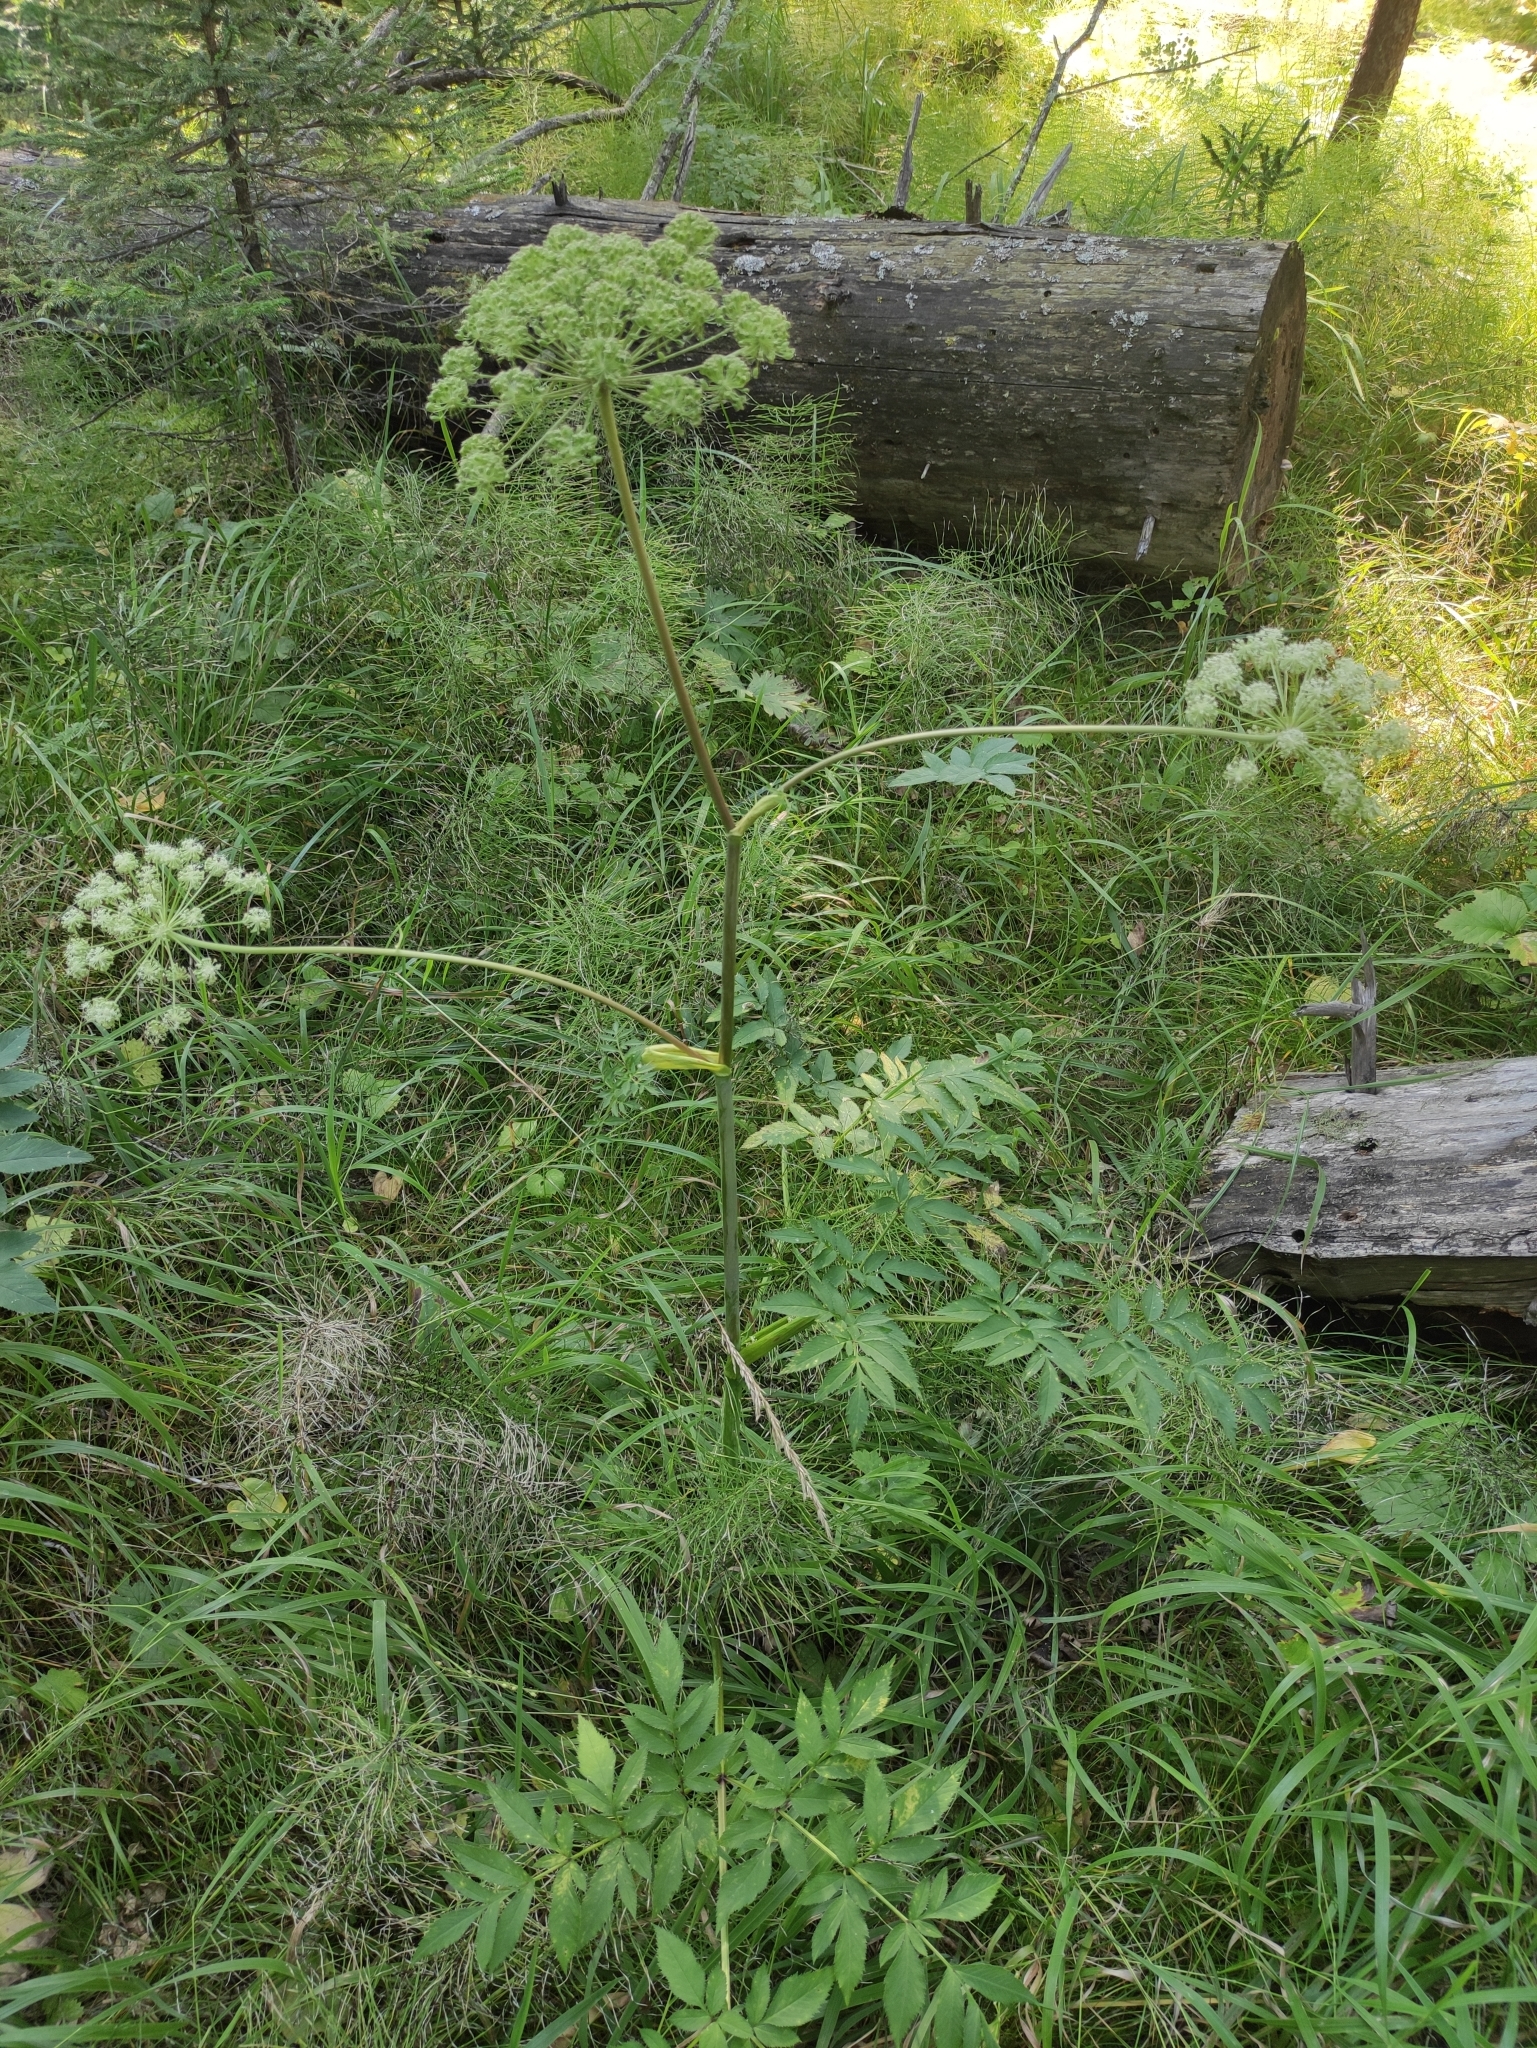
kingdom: Plantae
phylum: Tracheophyta
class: Magnoliopsida
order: Apiales
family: Apiaceae
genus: Angelica
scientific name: Angelica sylvestris
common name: Wild angelica
